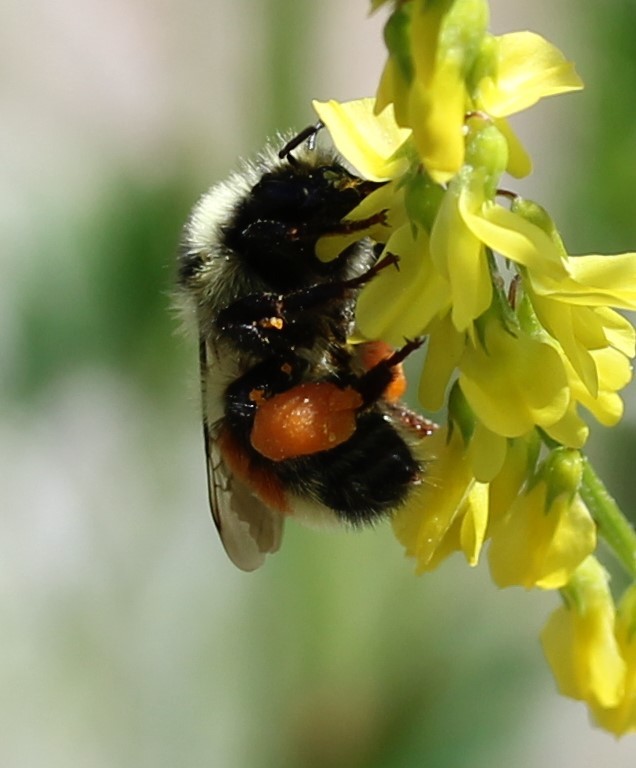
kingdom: Animalia
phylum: Arthropoda
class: Insecta
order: Hymenoptera
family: Apidae
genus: Bombus
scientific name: Bombus huntii
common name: Hunt bumble bee
